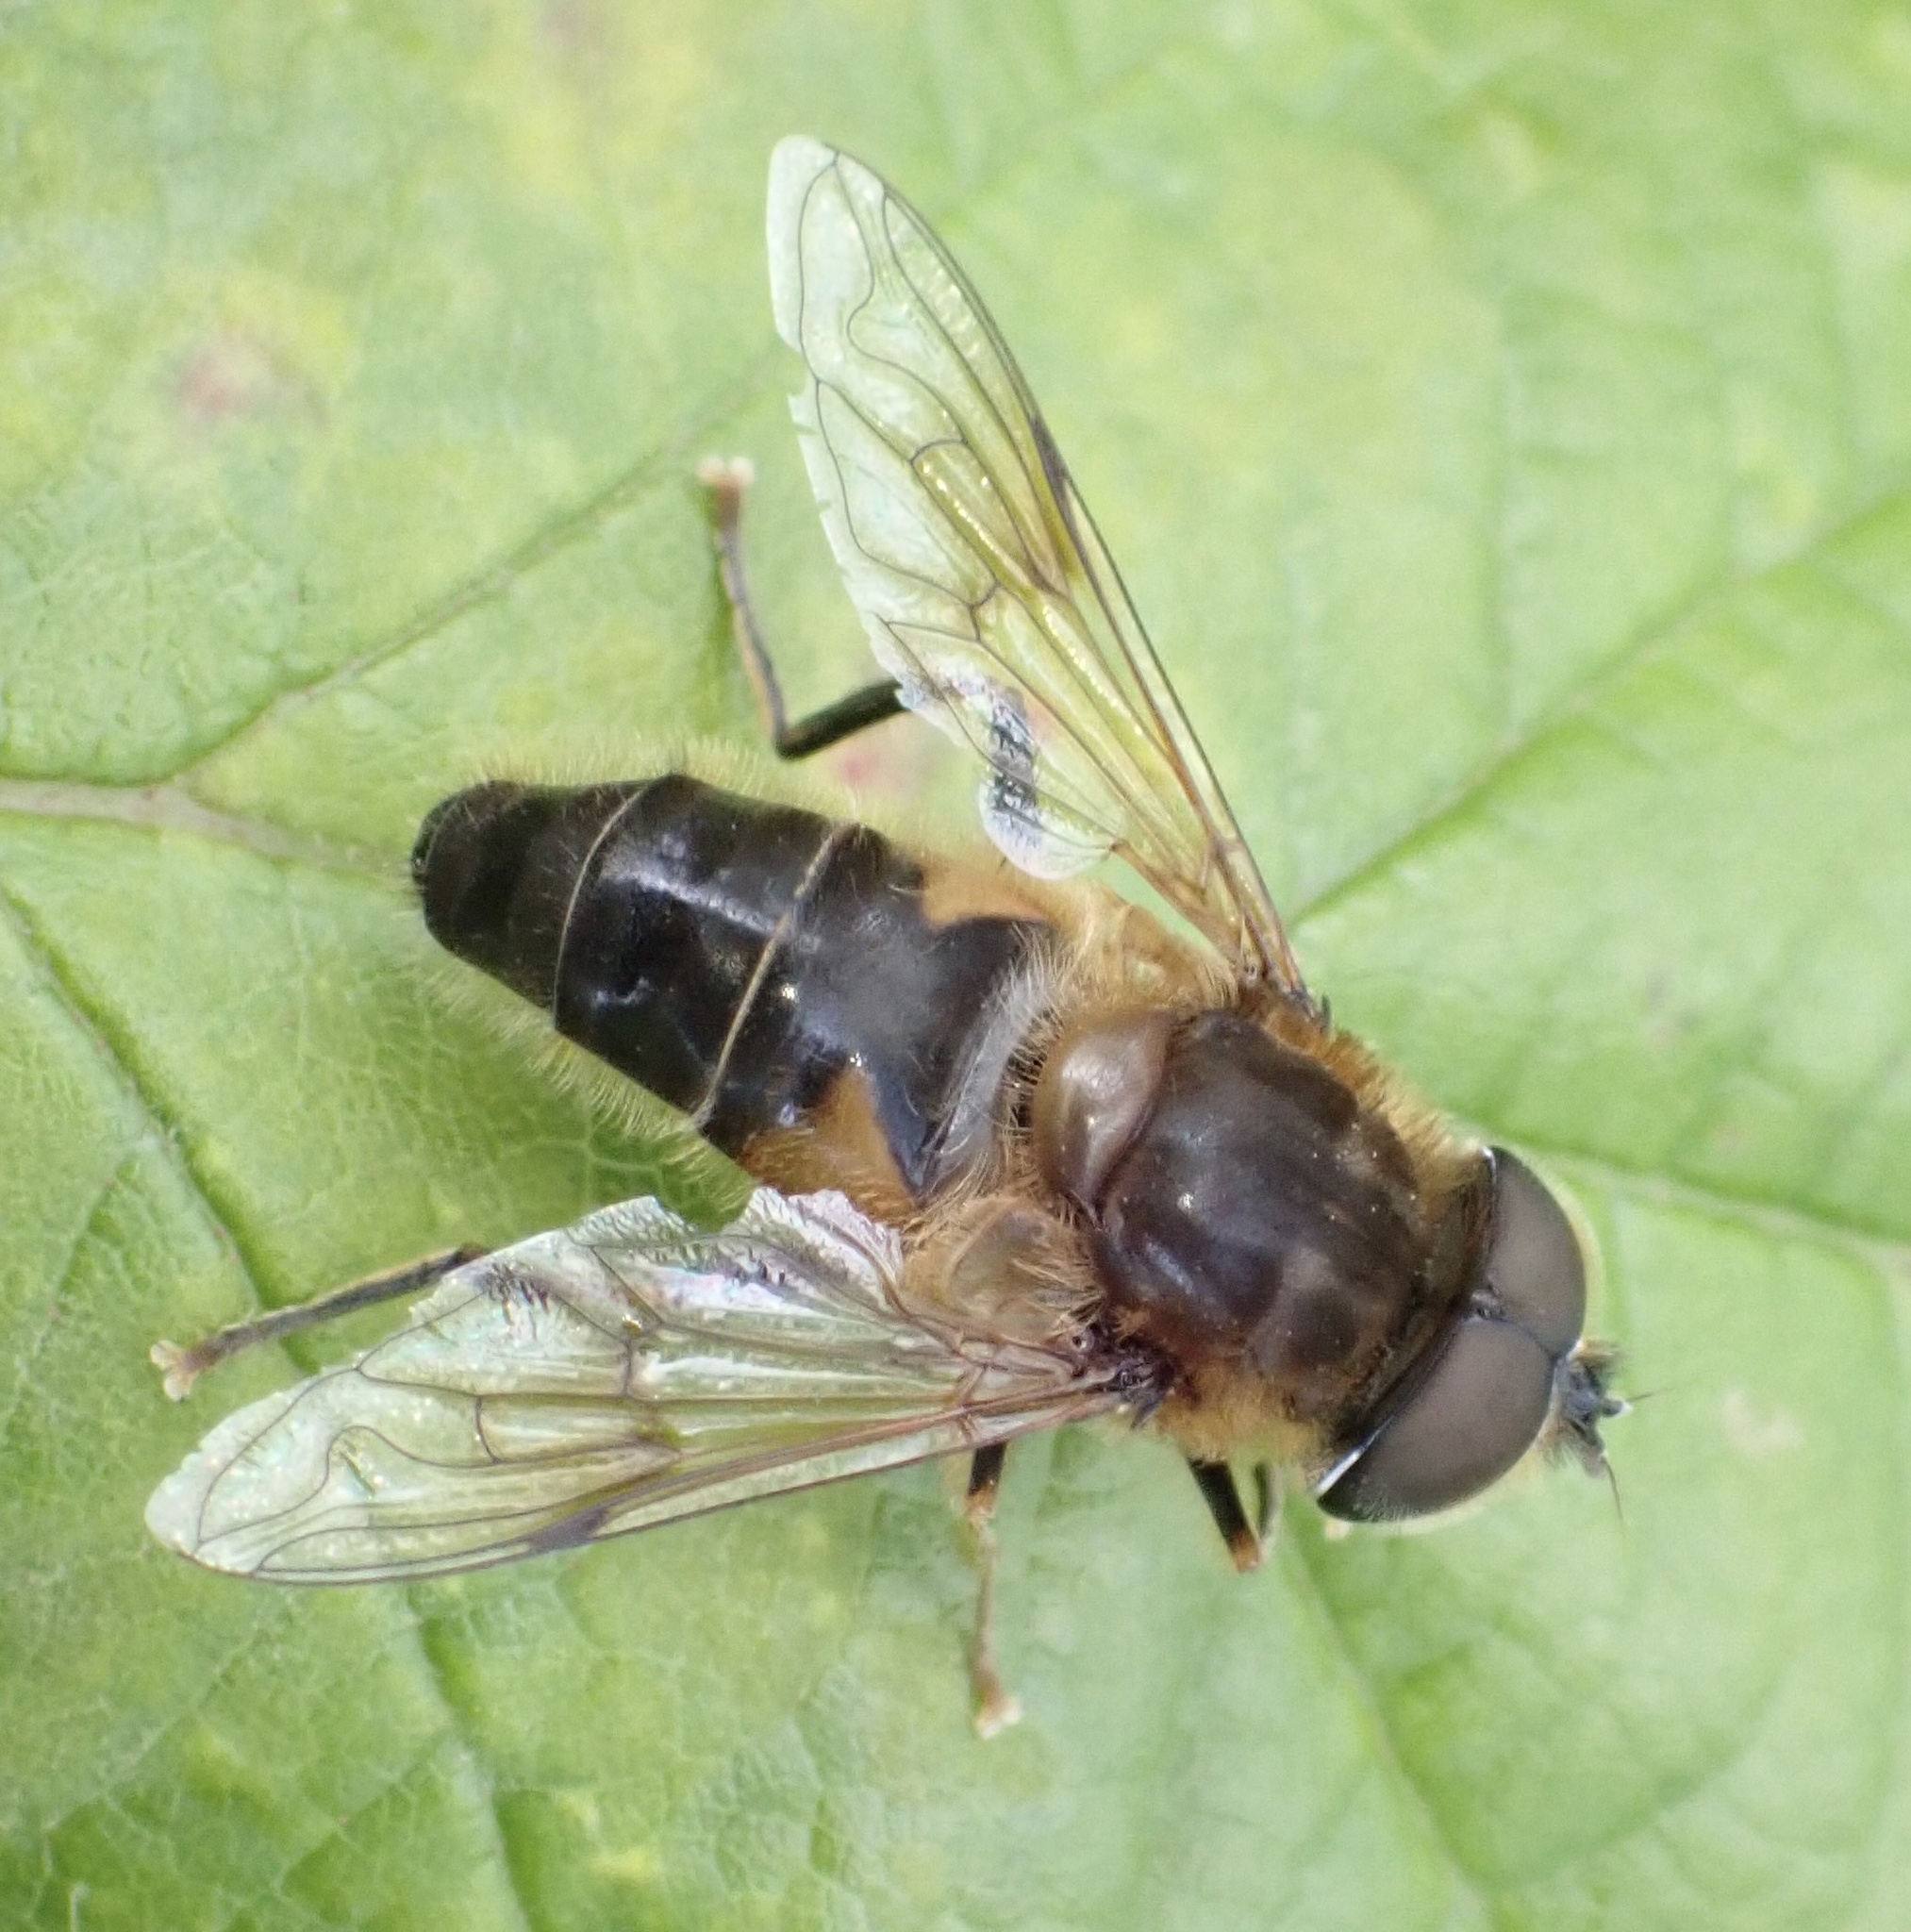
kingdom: Animalia
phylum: Arthropoda
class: Insecta
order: Diptera
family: Syrphidae
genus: Eristalis
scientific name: Eristalis pertinax
